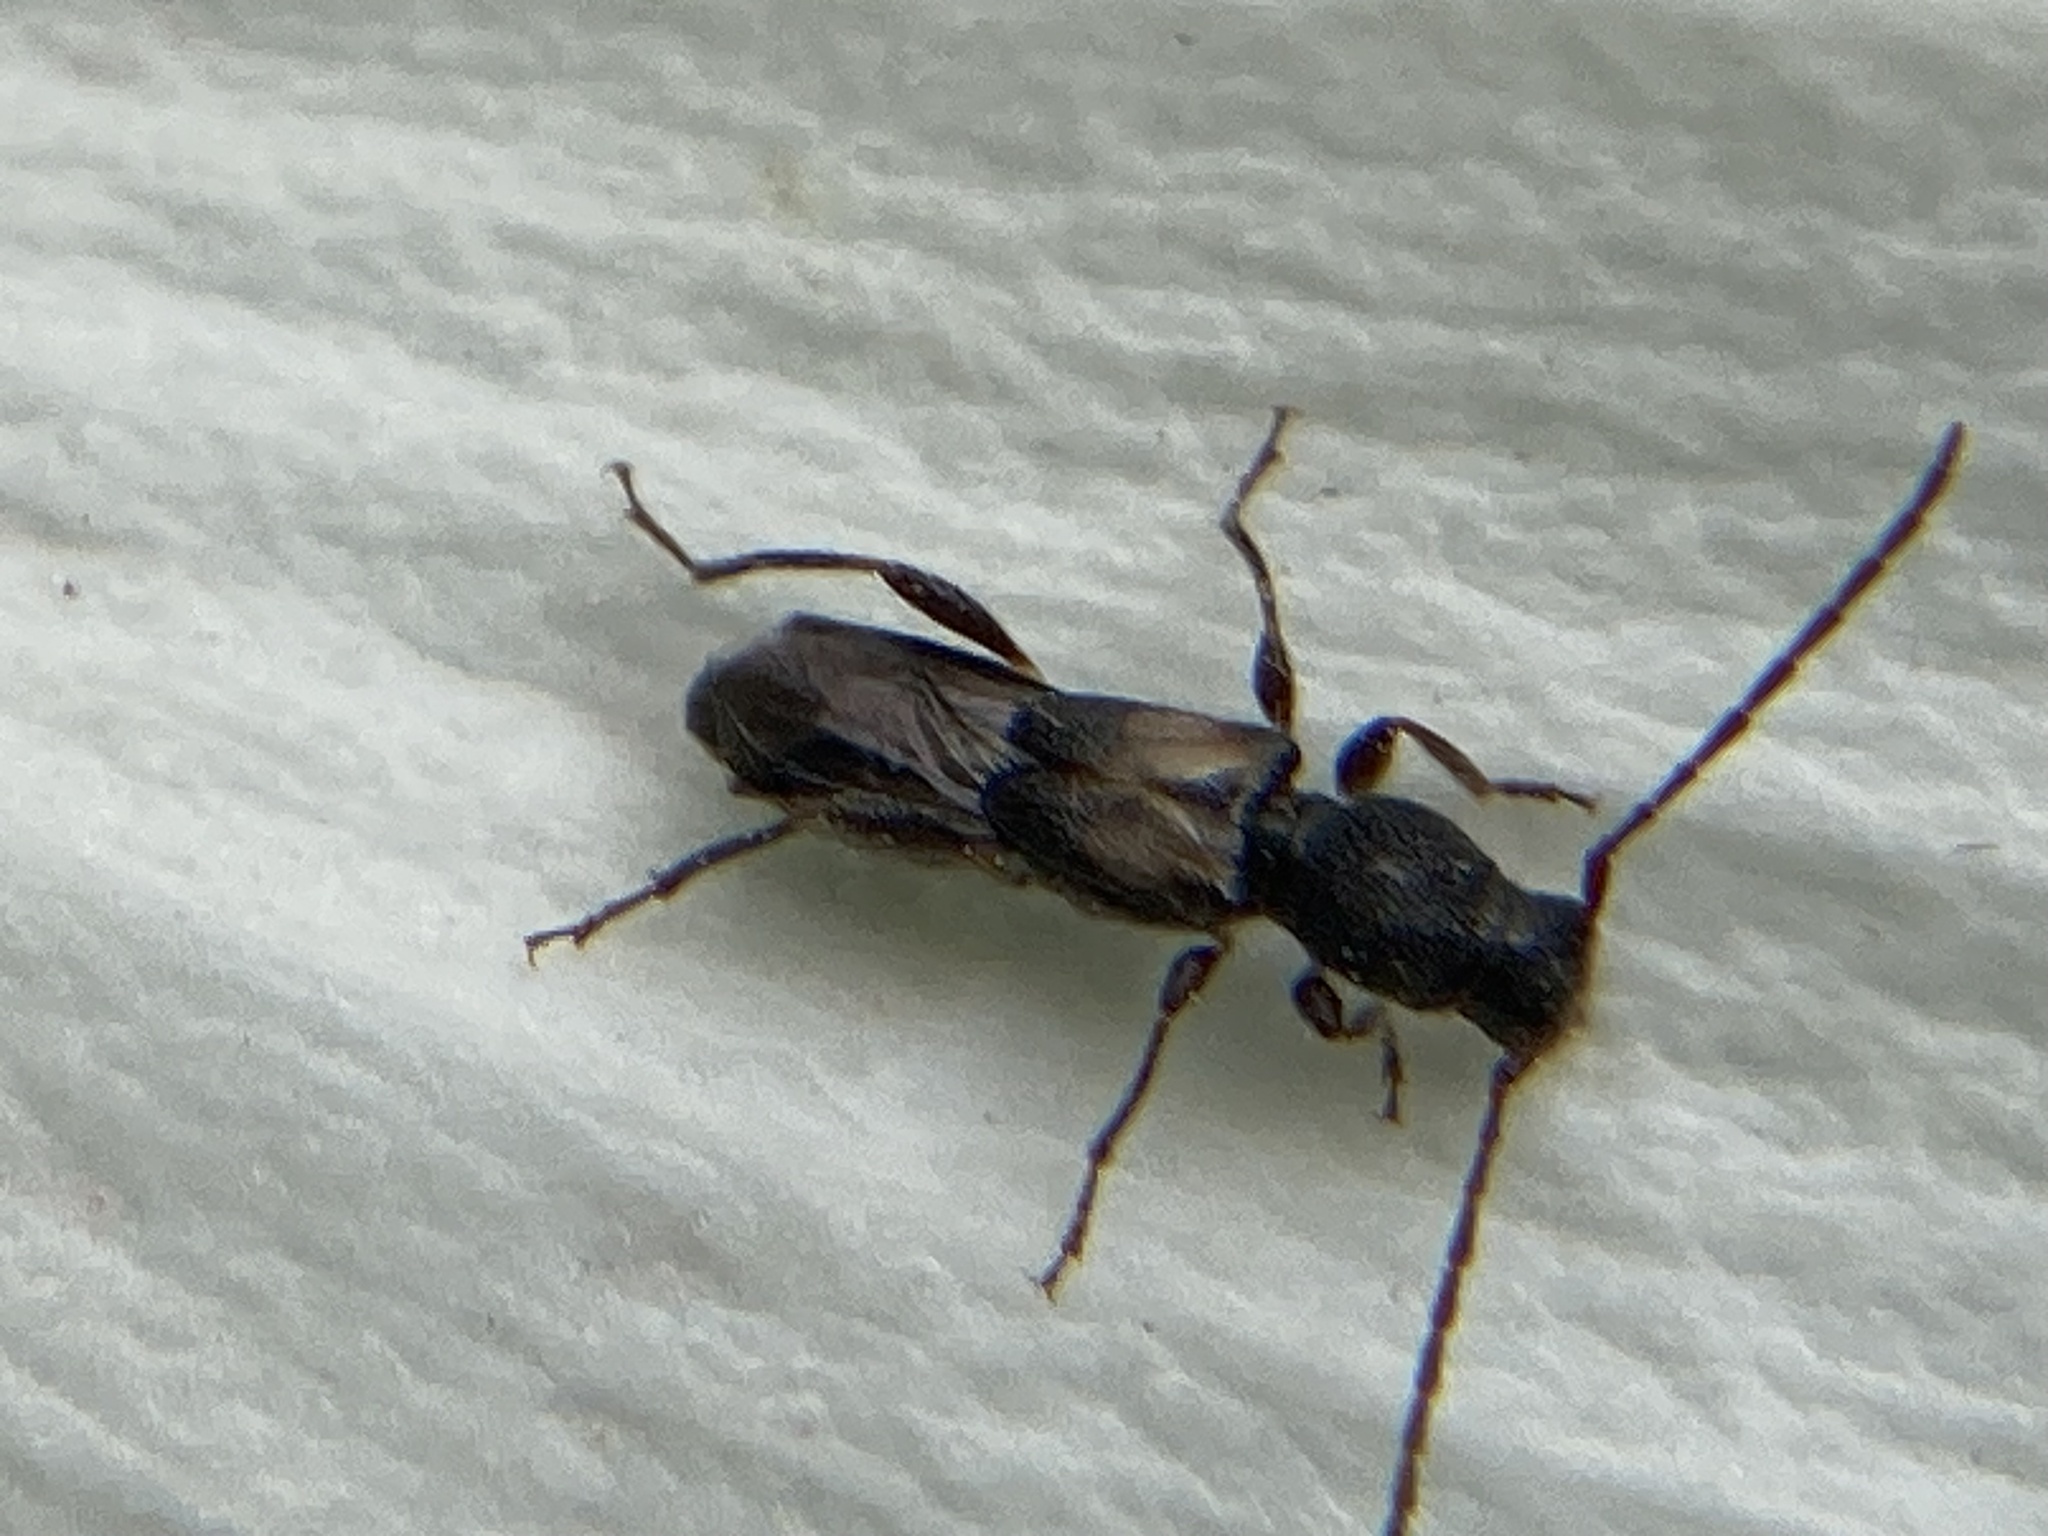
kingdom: Animalia
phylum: Arthropoda
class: Insecta
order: Coleoptera
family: Cerambycidae
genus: Molorchus
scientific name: Molorchus bimaculatus
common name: Bimaculate longhorn beetle
